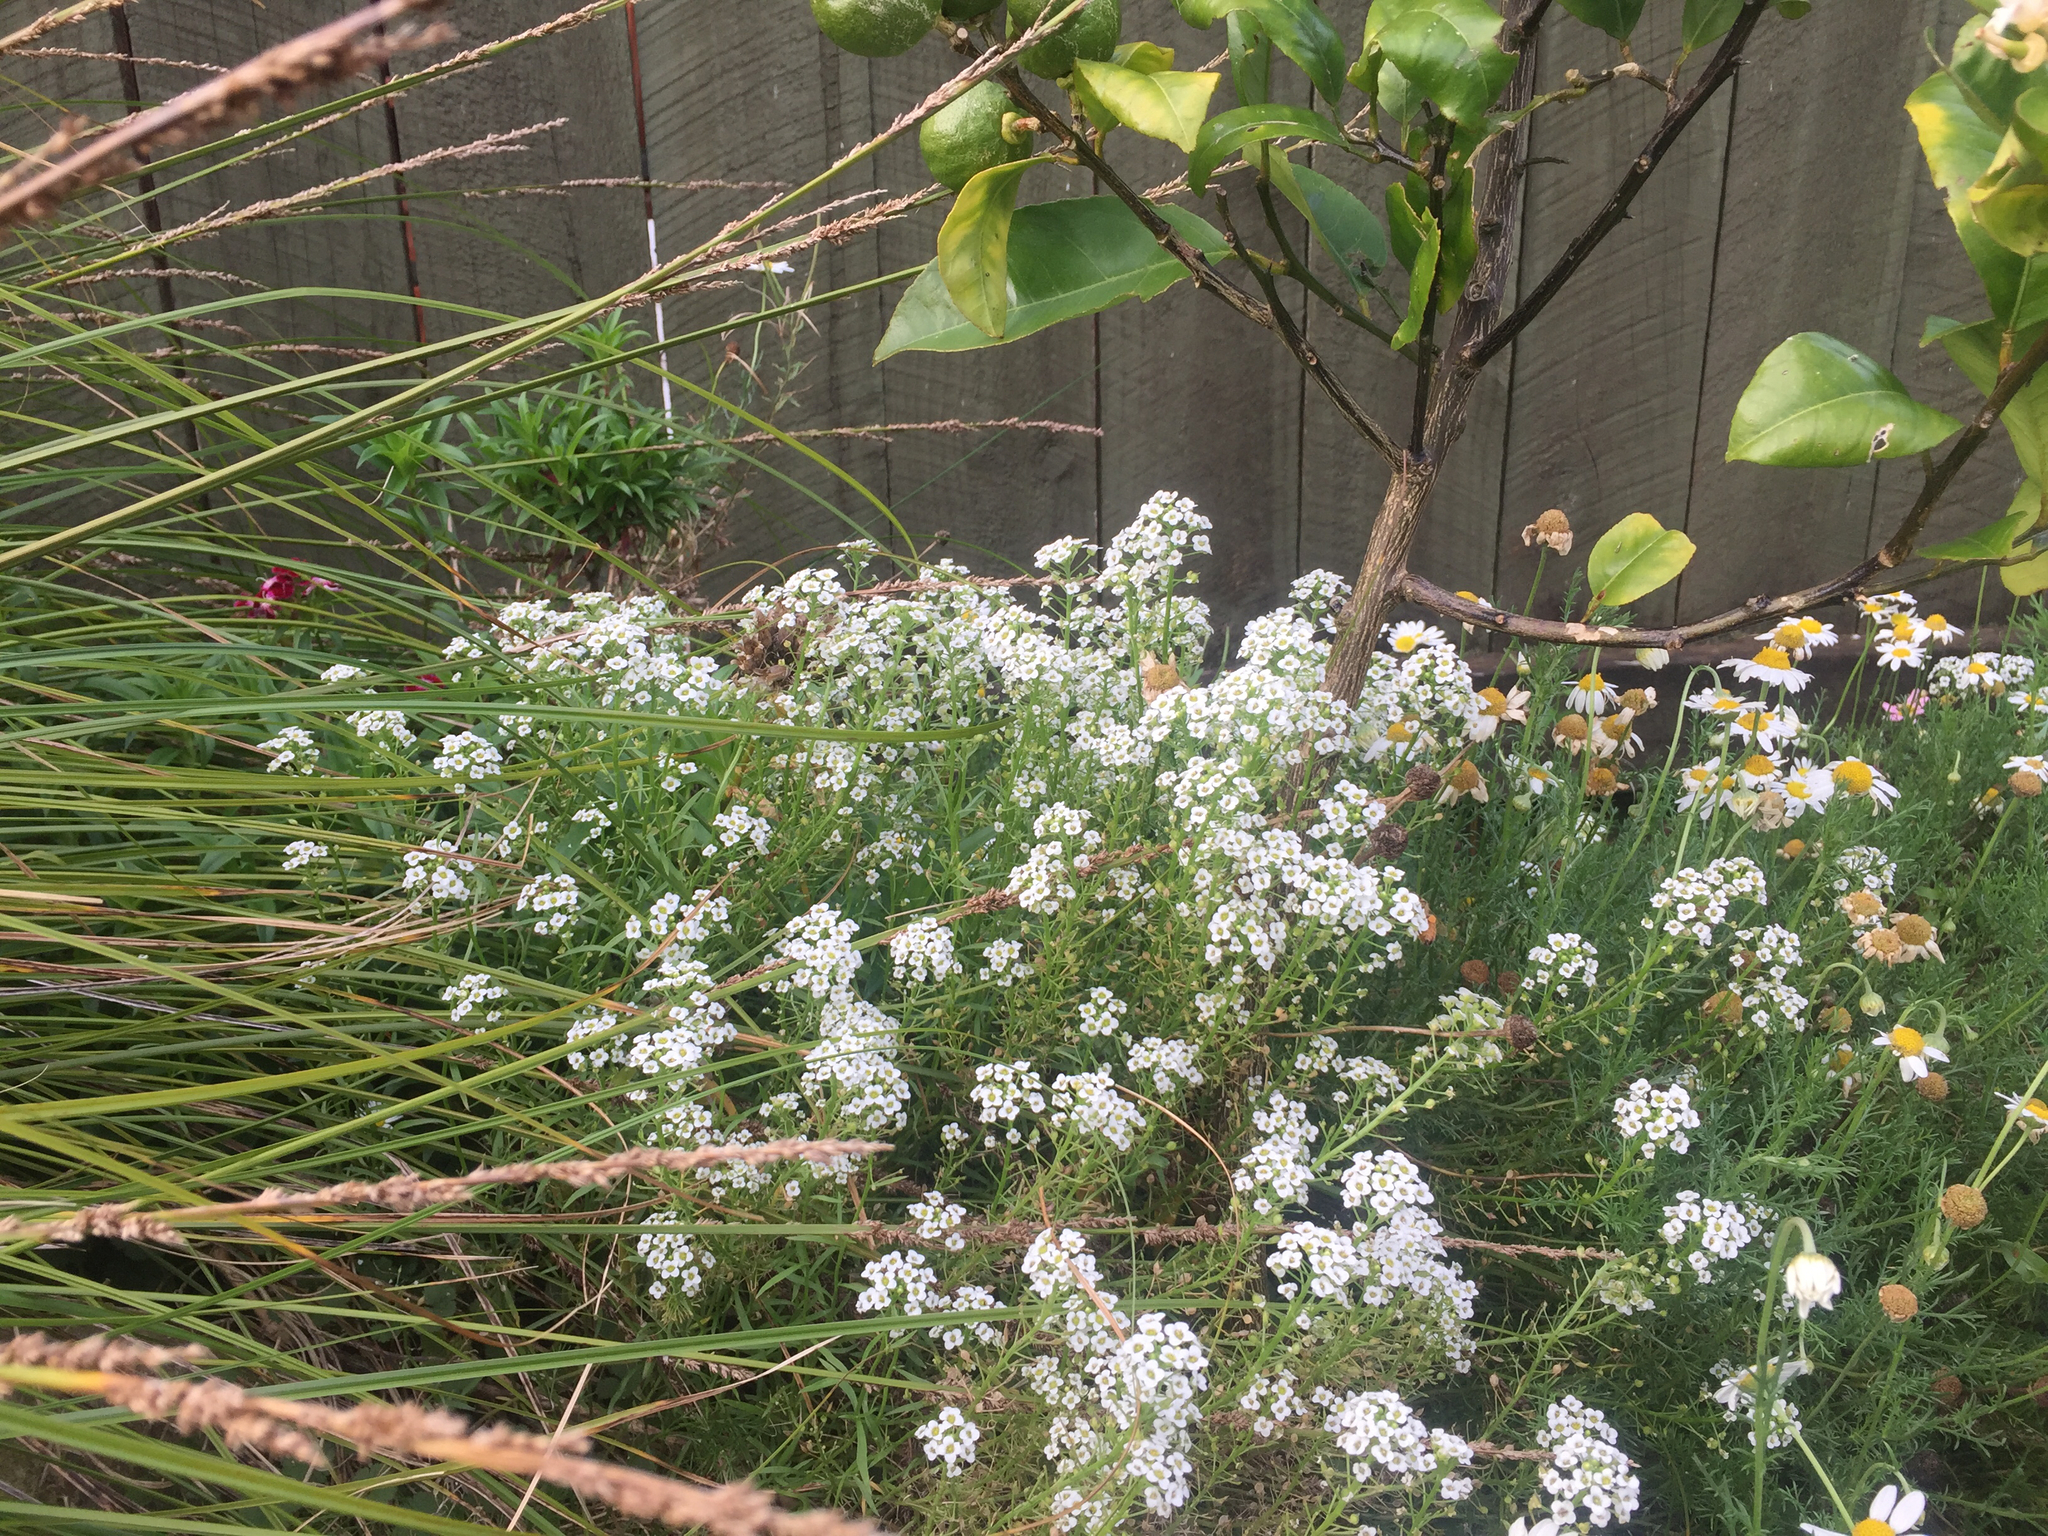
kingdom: Plantae
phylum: Tracheophyta
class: Magnoliopsida
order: Brassicales
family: Brassicaceae
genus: Lobularia
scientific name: Lobularia maritima
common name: Sweet alison
